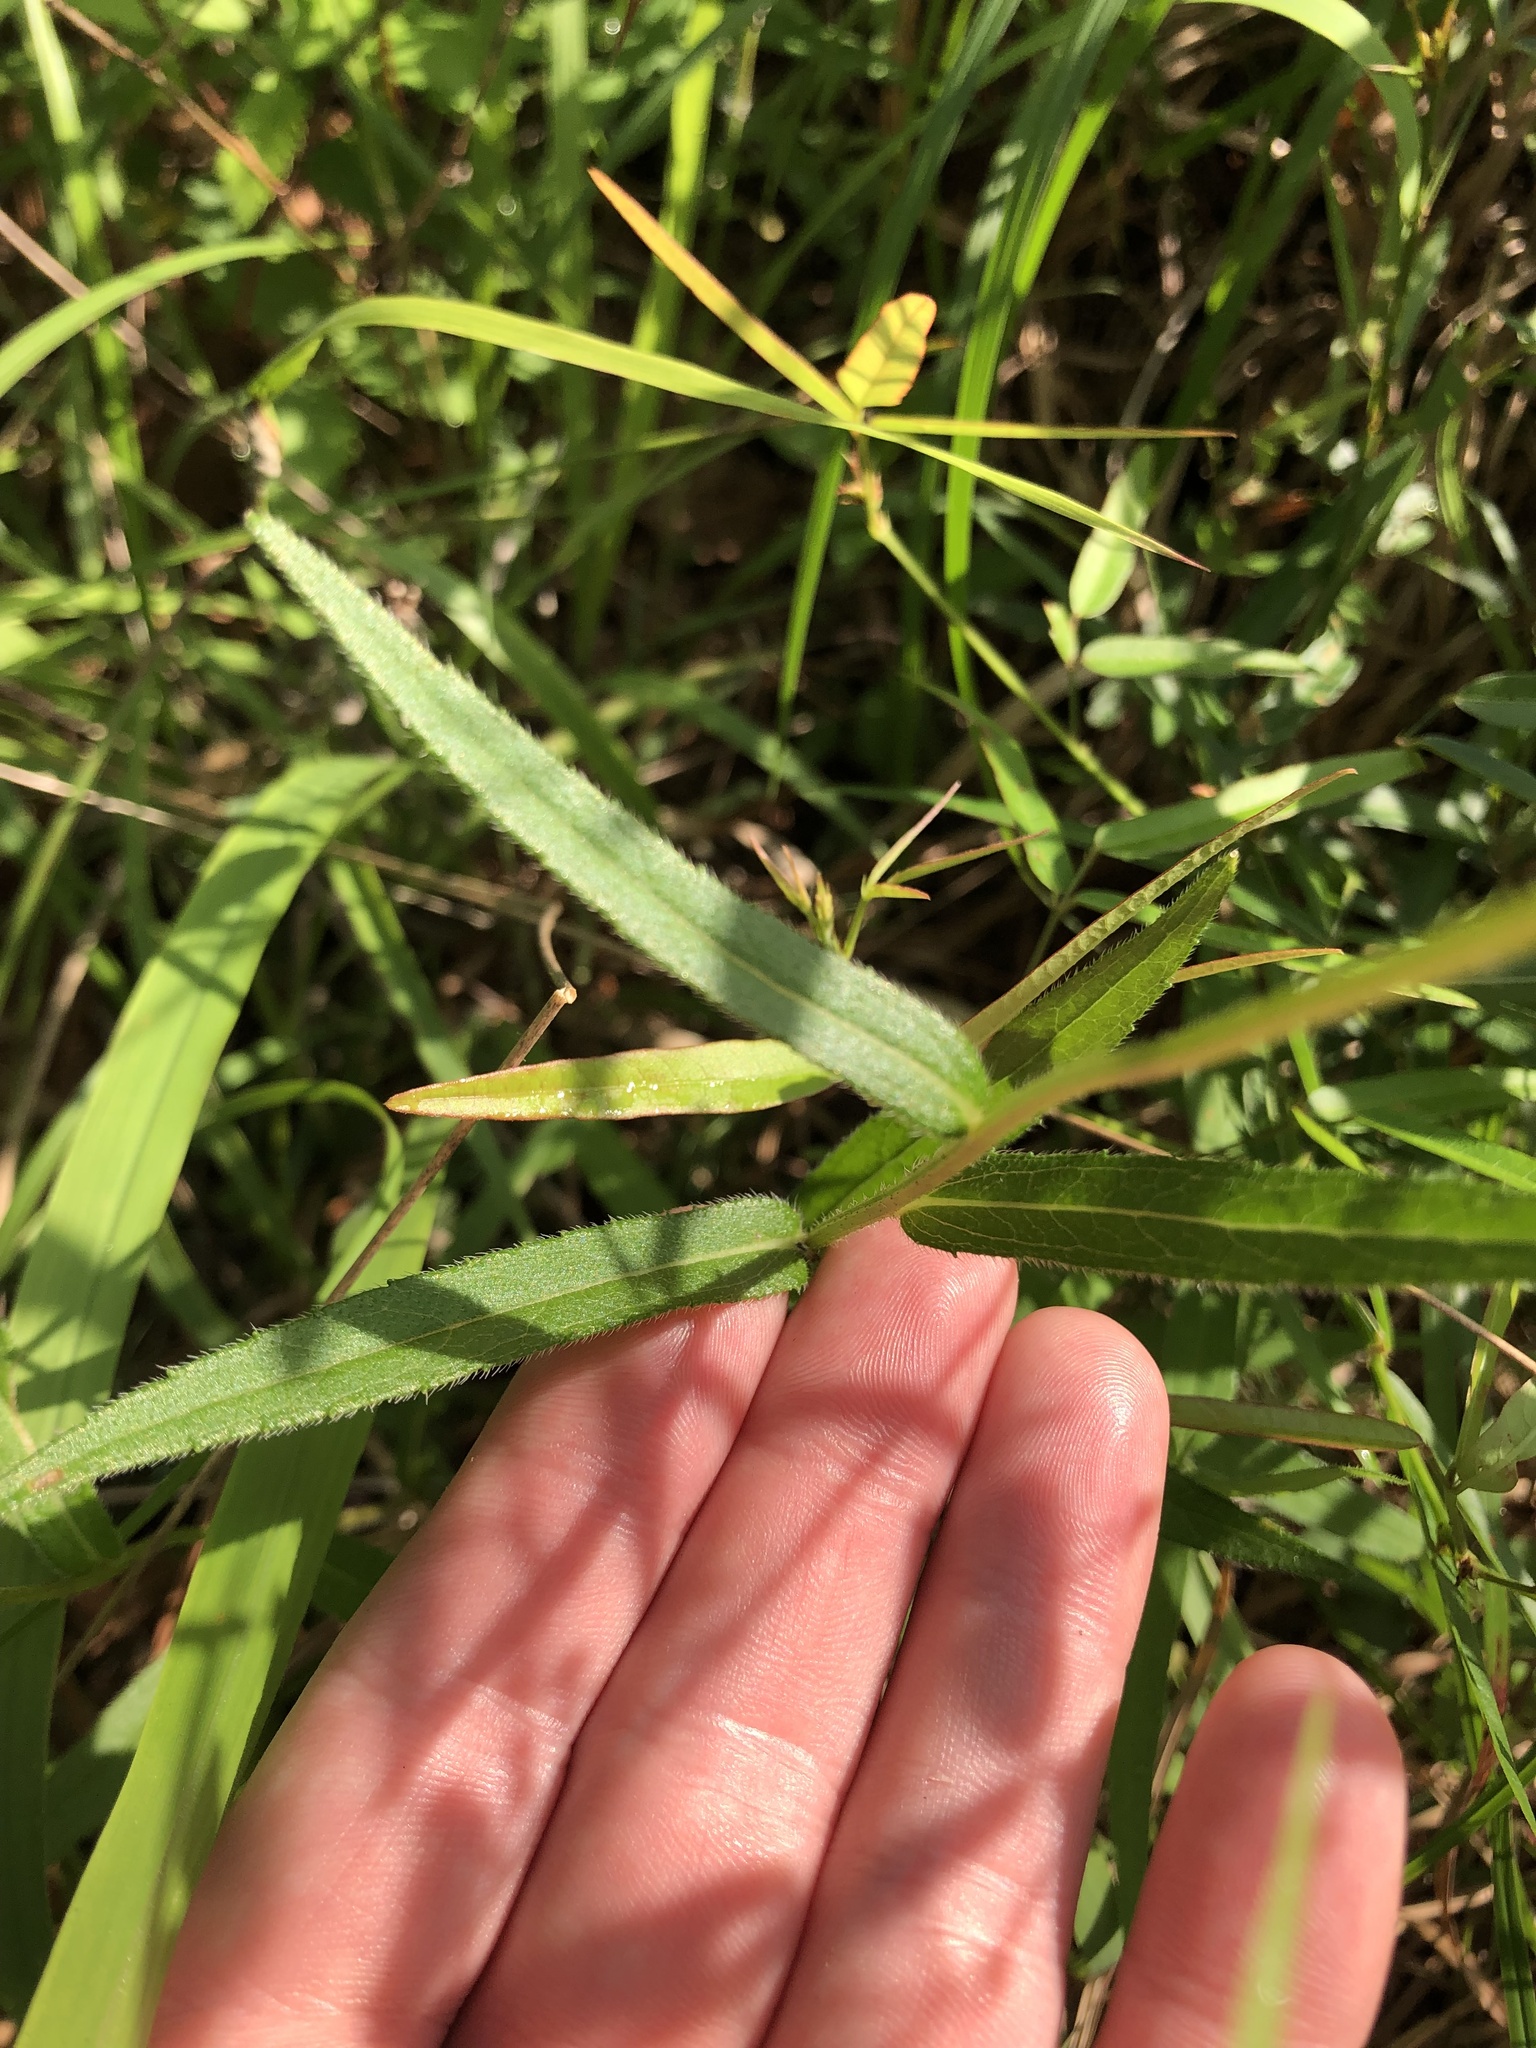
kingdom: Plantae
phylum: Tracheophyta
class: Magnoliopsida
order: Asterales
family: Asteraceae
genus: Rudbeckia
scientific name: Rudbeckia hirta
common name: Black-eyed-susan
